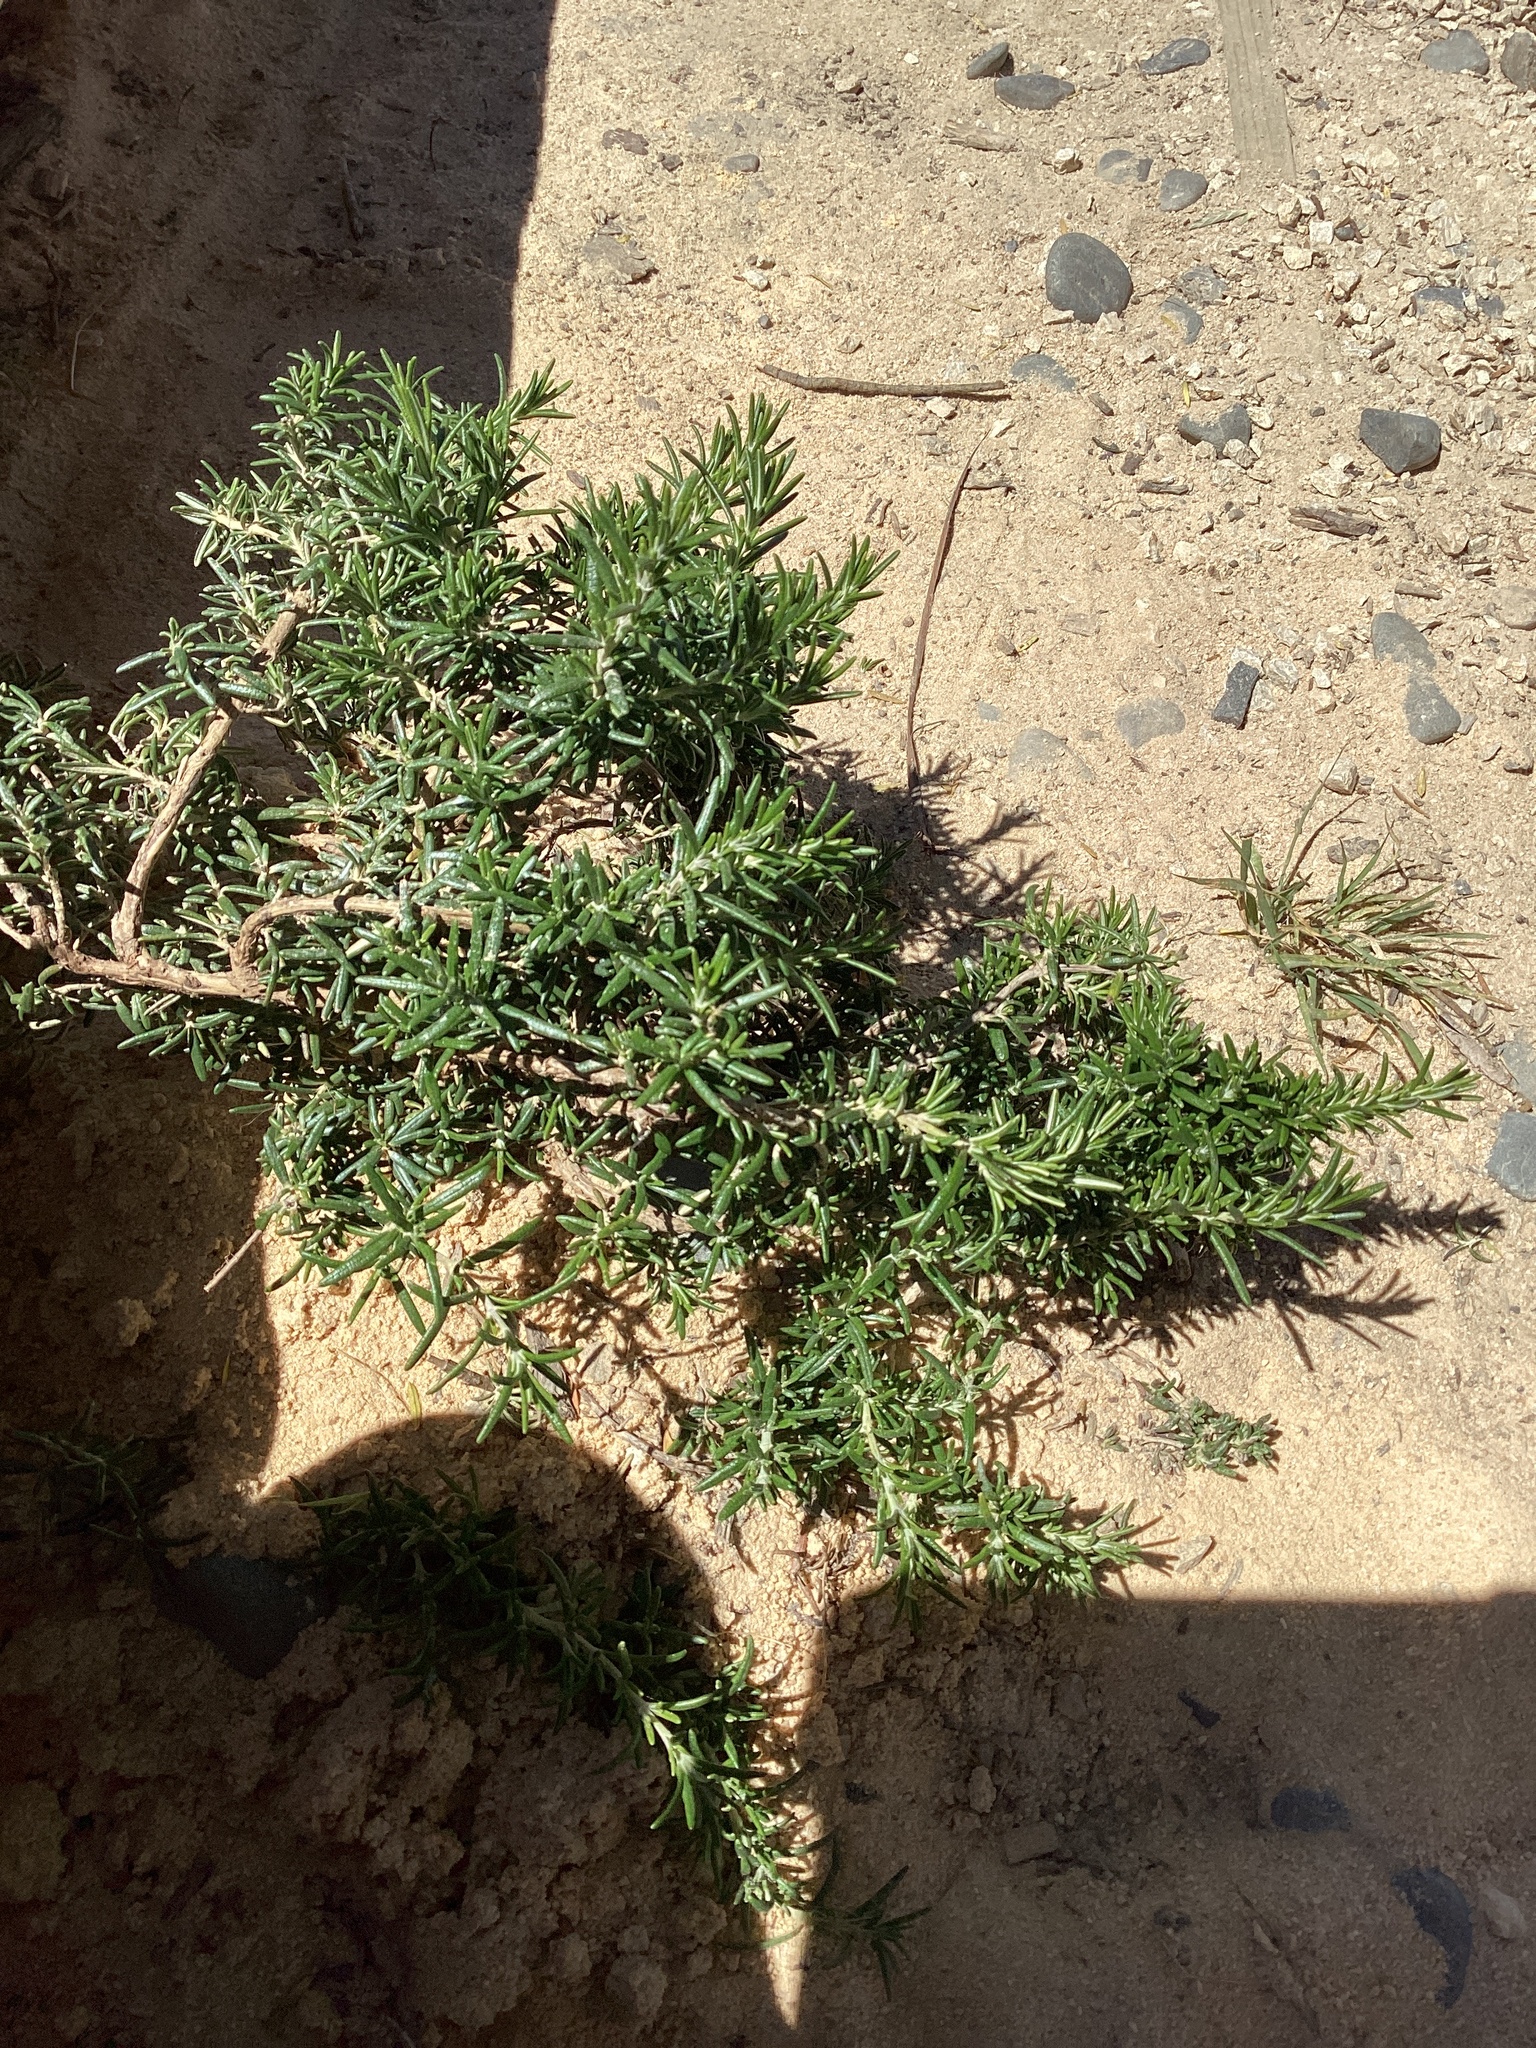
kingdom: Plantae
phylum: Tracheophyta
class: Magnoliopsida
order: Lamiales
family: Lamiaceae
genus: Salvia
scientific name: Salvia rosmarinus
